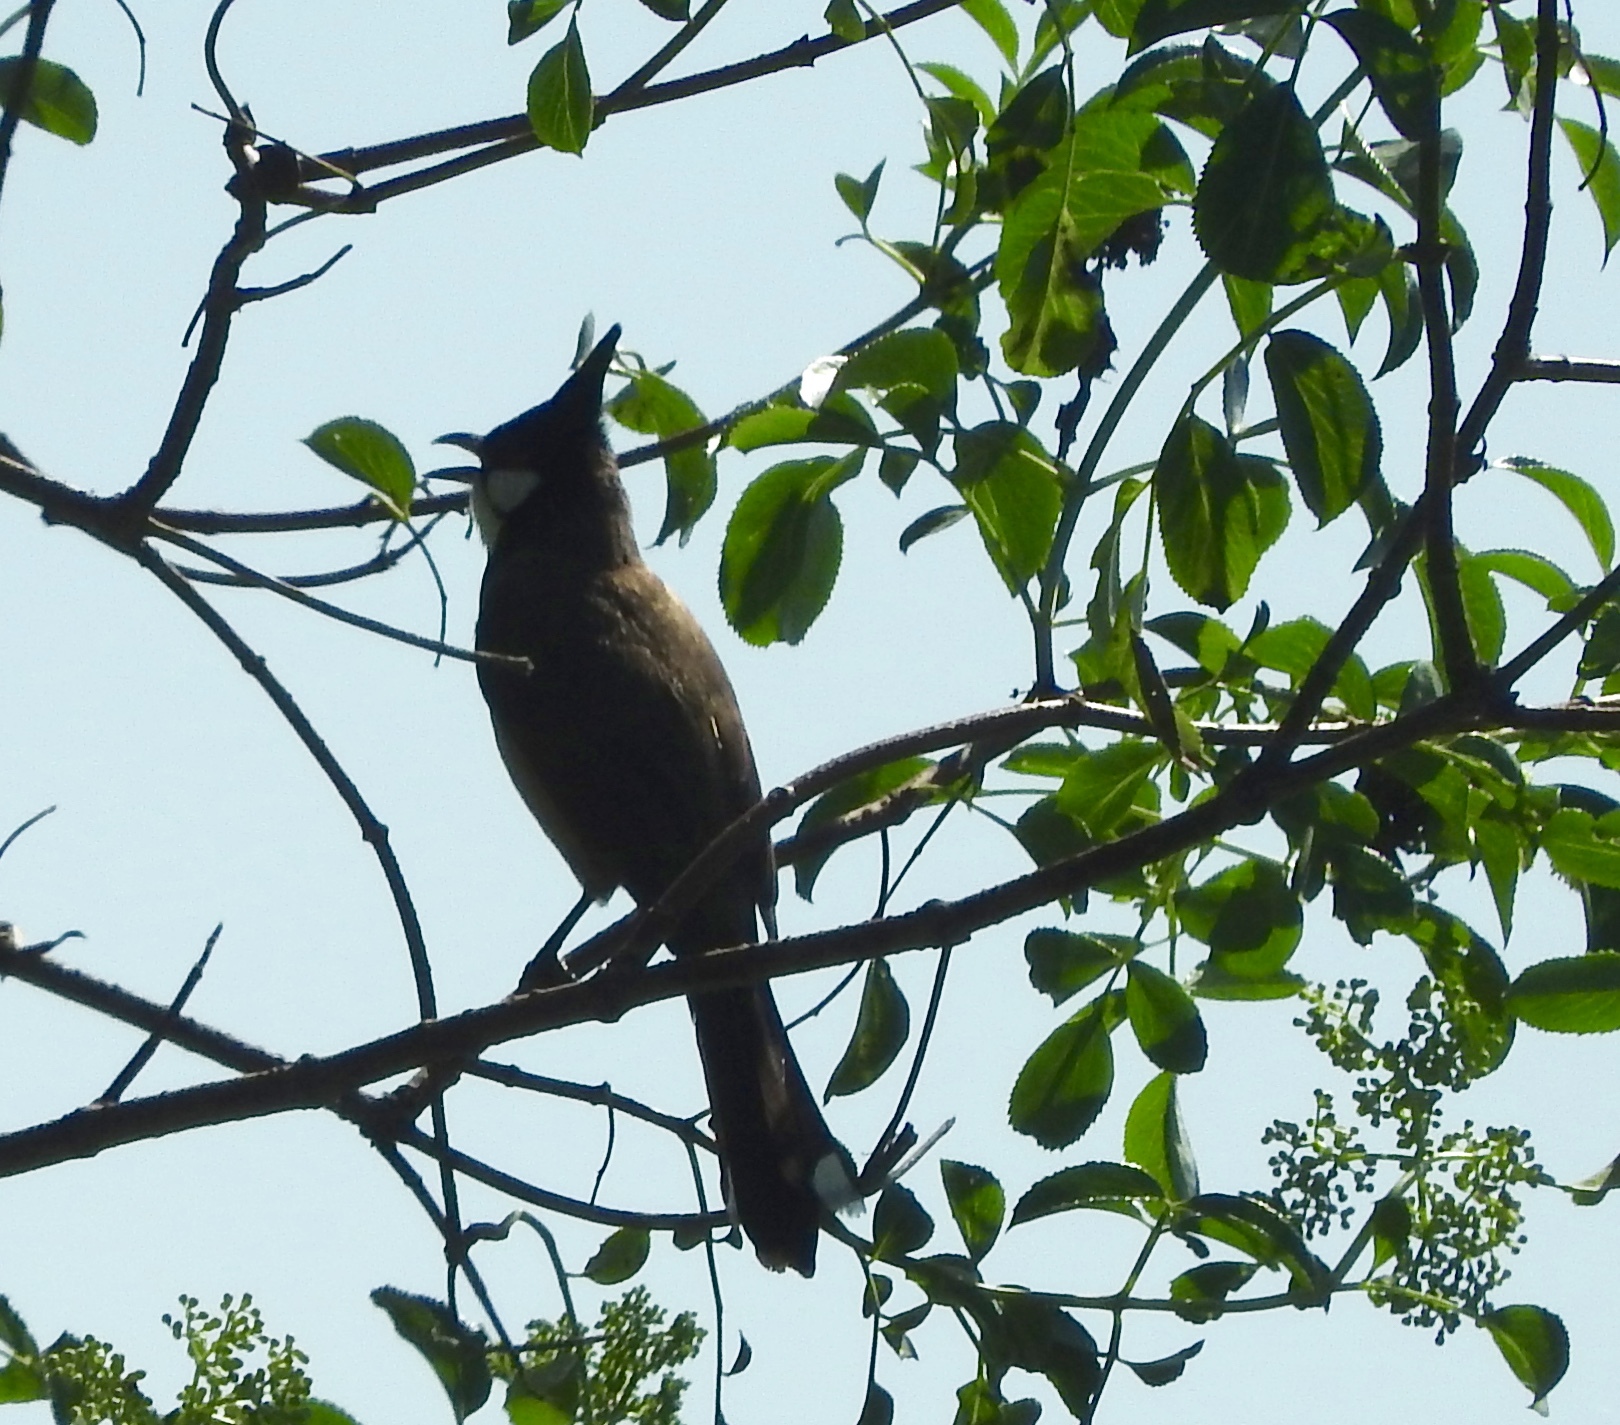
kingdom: Animalia
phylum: Chordata
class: Aves
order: Passeriformes
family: Pycnonotidae
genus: Pycnonotus
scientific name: Pycnonotus jocosus
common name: Red-whiskered bulbul
